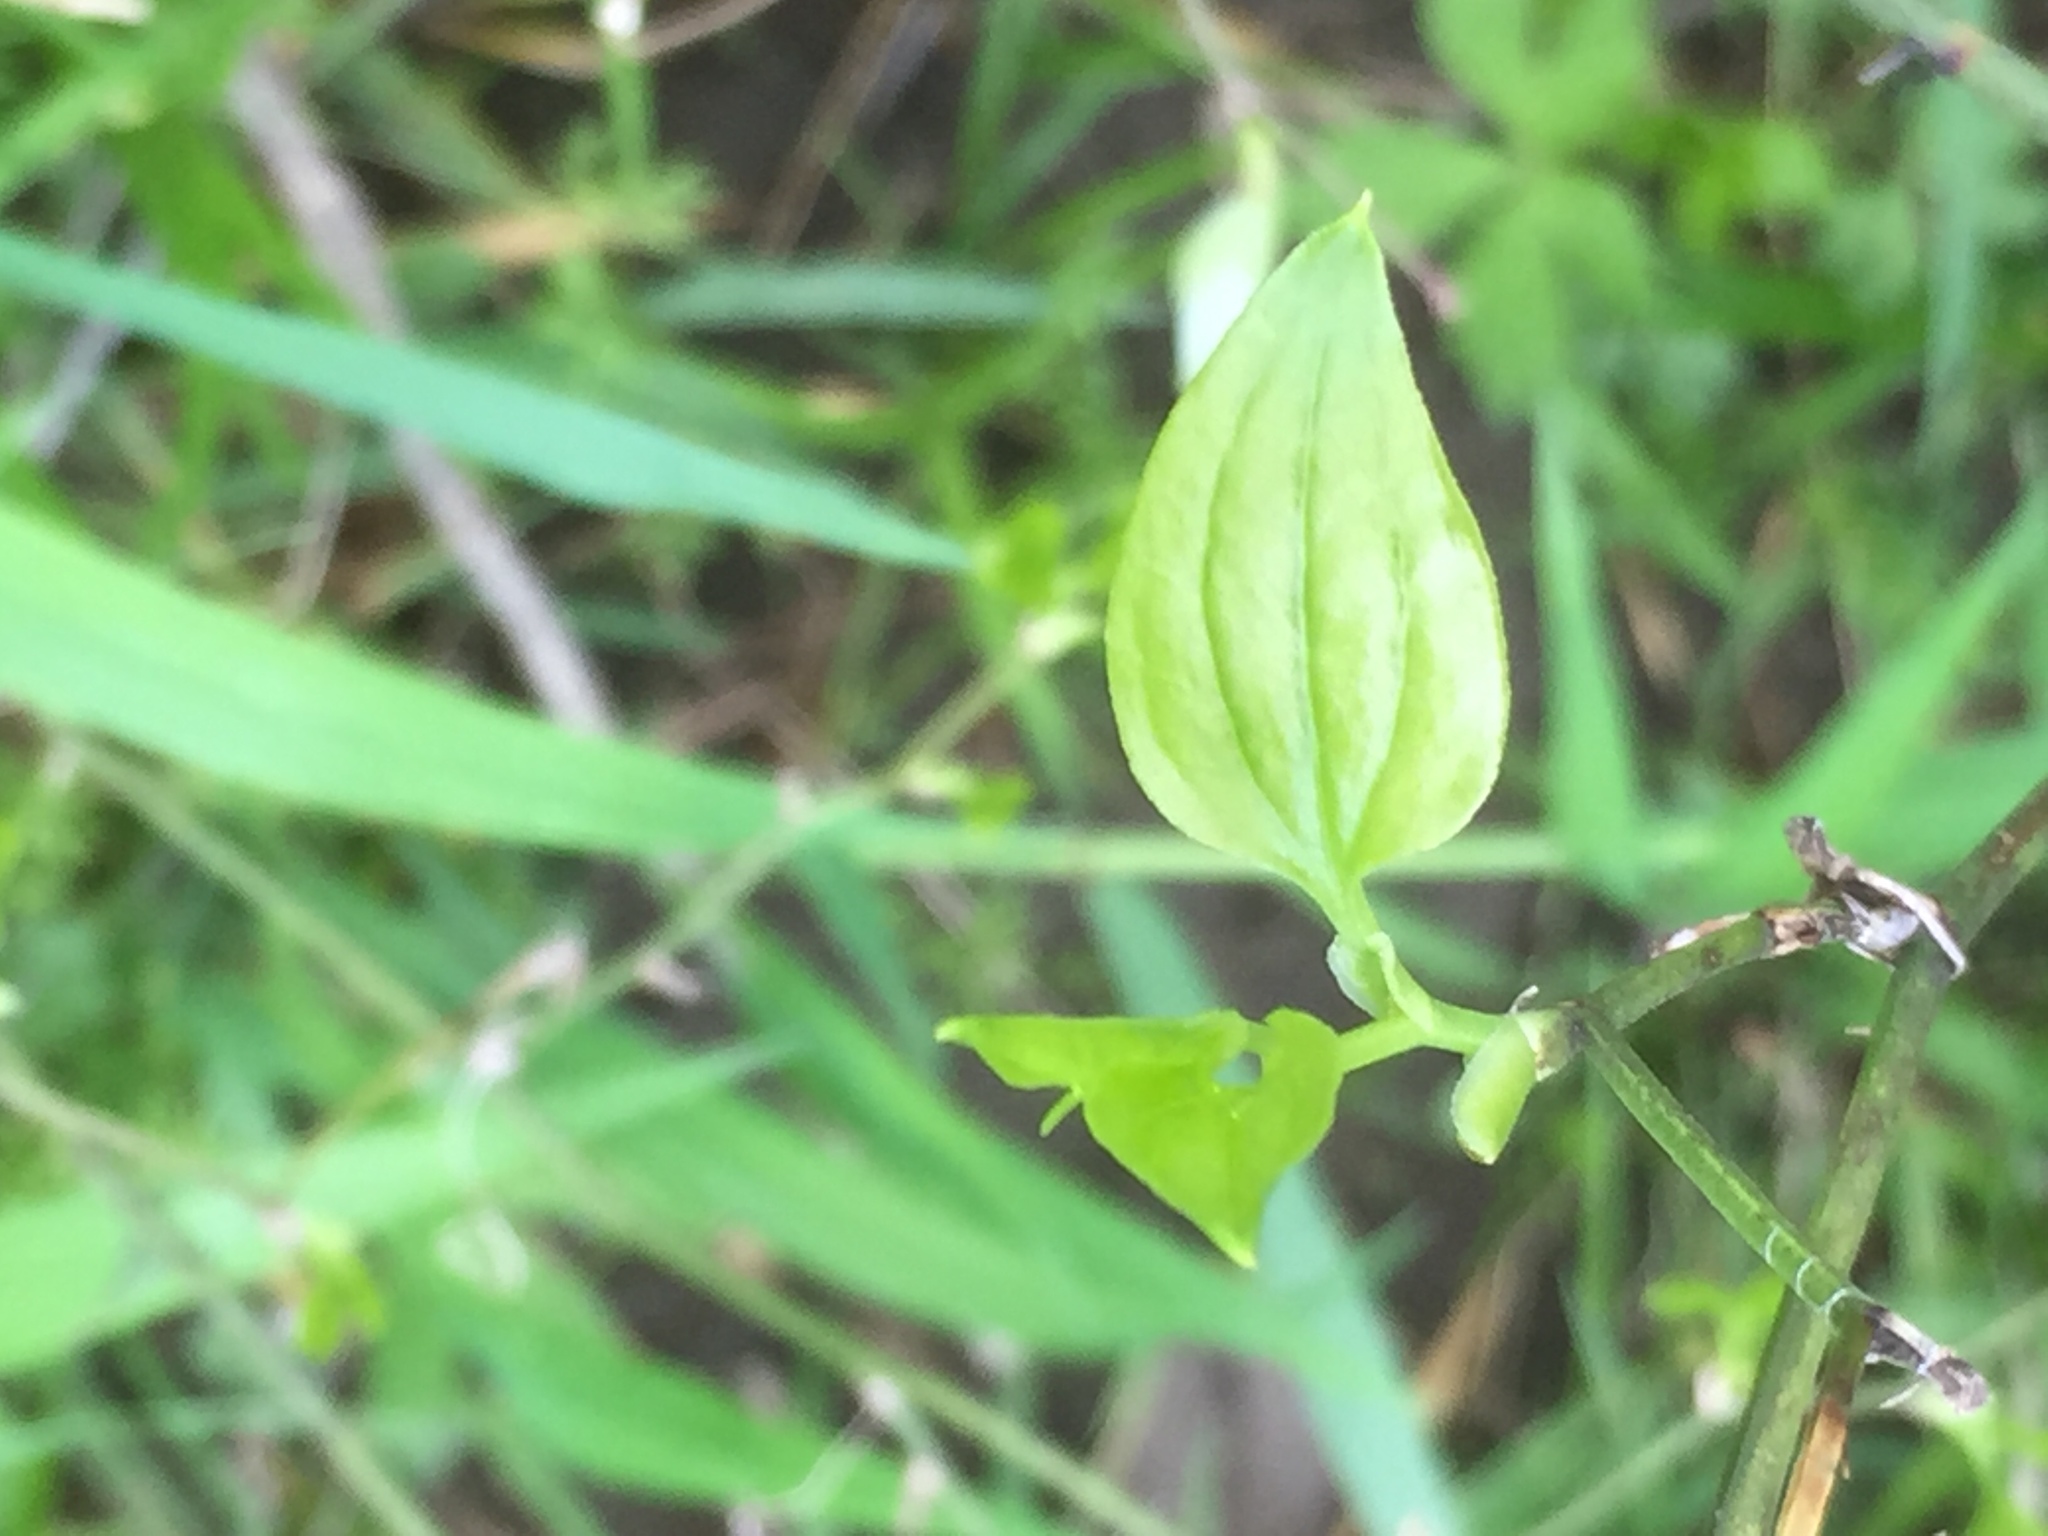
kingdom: Plantae
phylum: Tracheophyta
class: Liliopsida
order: Liliales
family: Smilacaceae
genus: Smilax
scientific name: Smilax tamnoides
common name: Hellfetter
